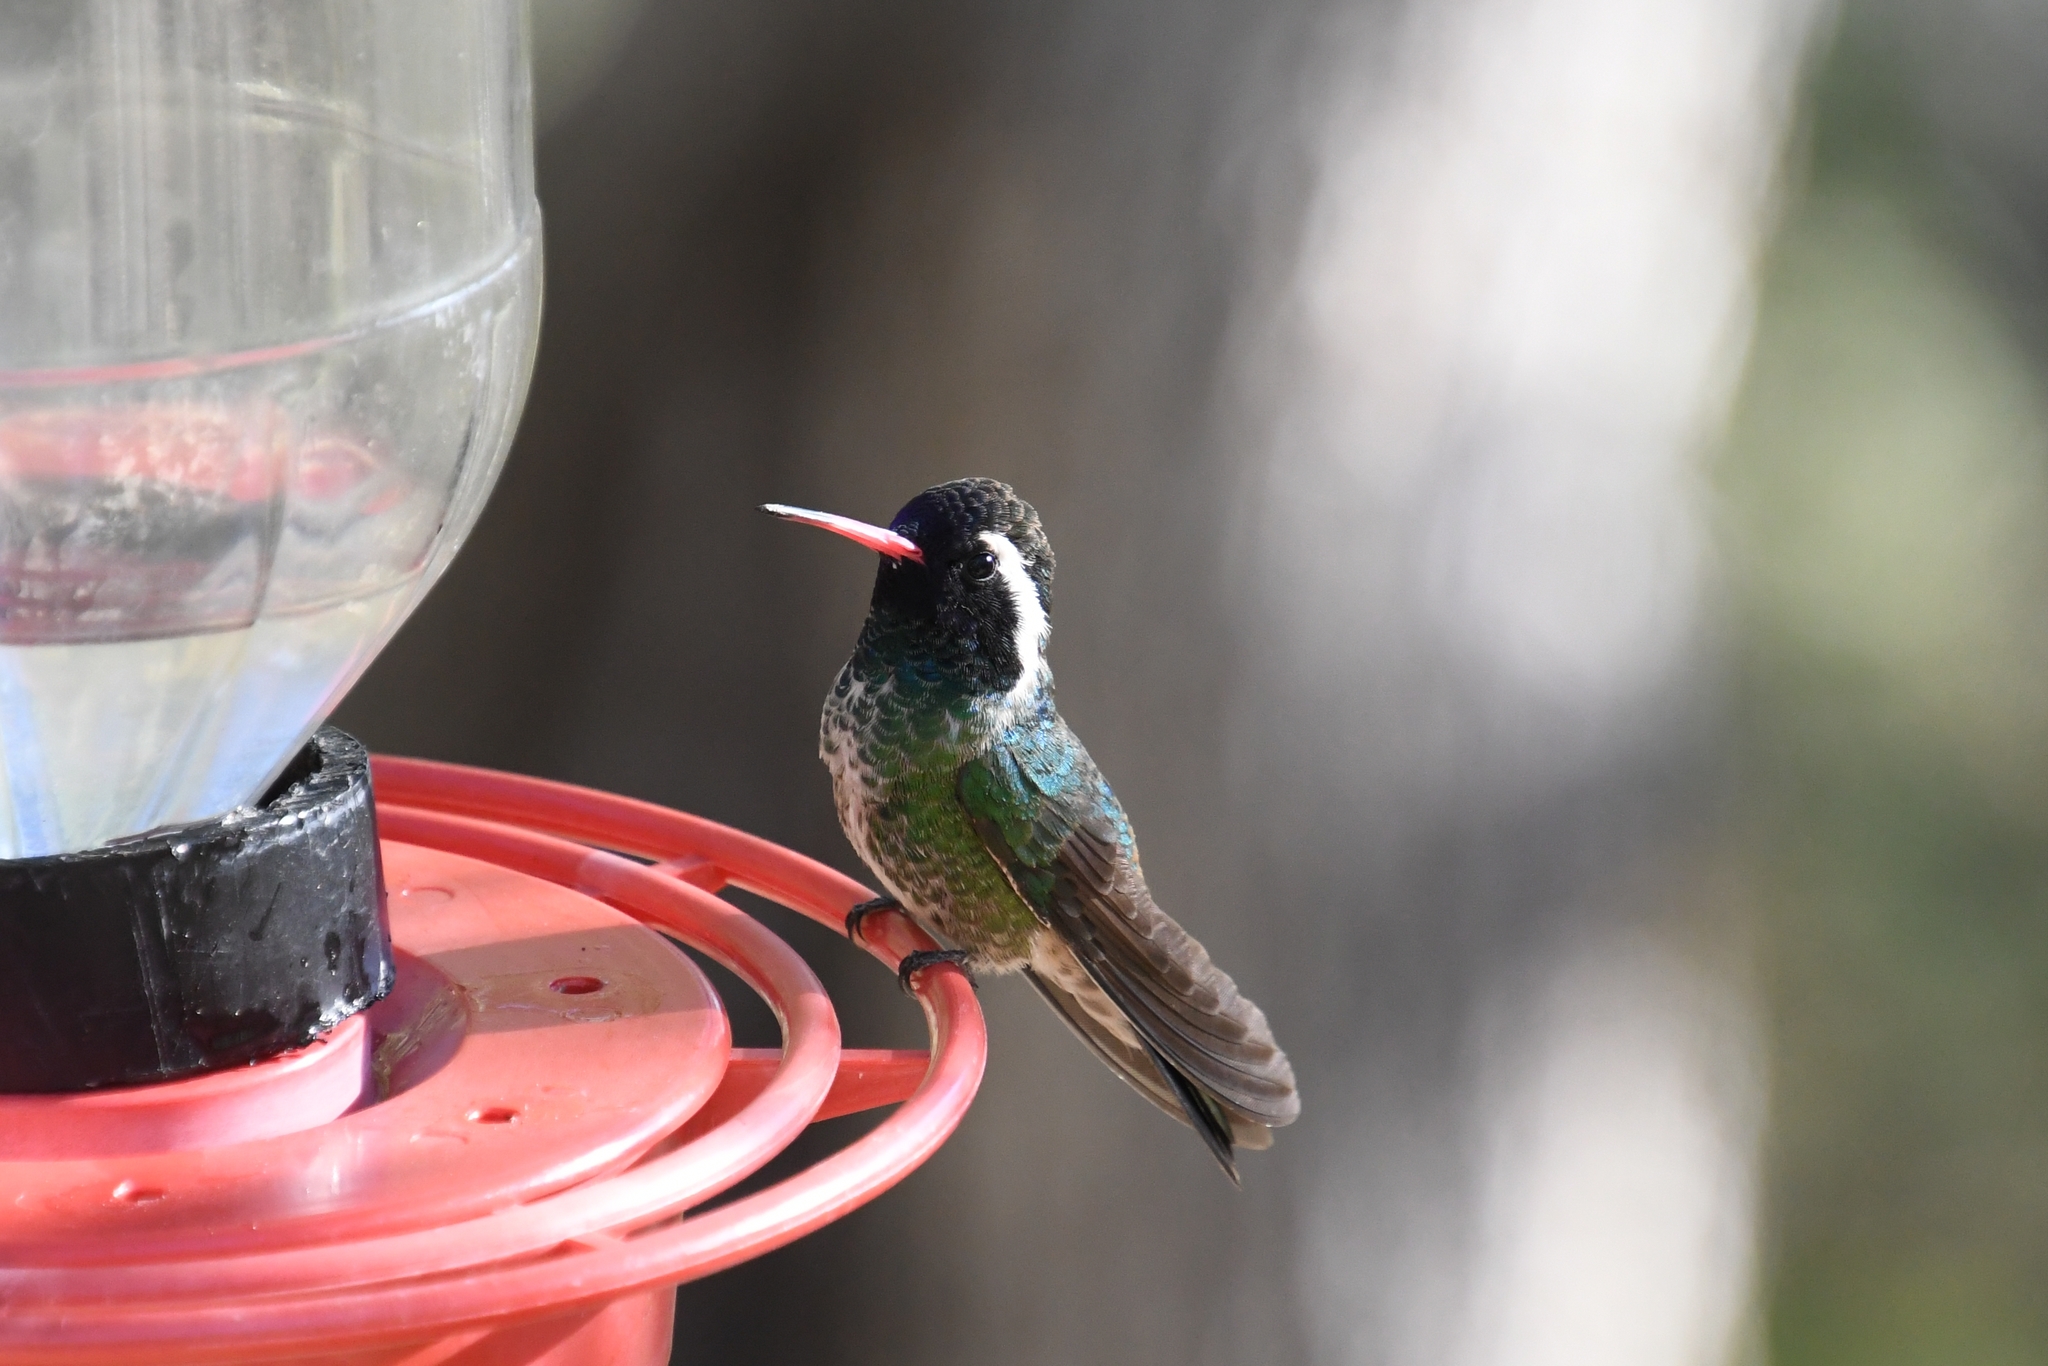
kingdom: Animalia
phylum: Chordata
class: Aves
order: Apodiformes
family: Trochilidae
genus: Basilinna
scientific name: Basilinna leucotis
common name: White-eared hummingbird
